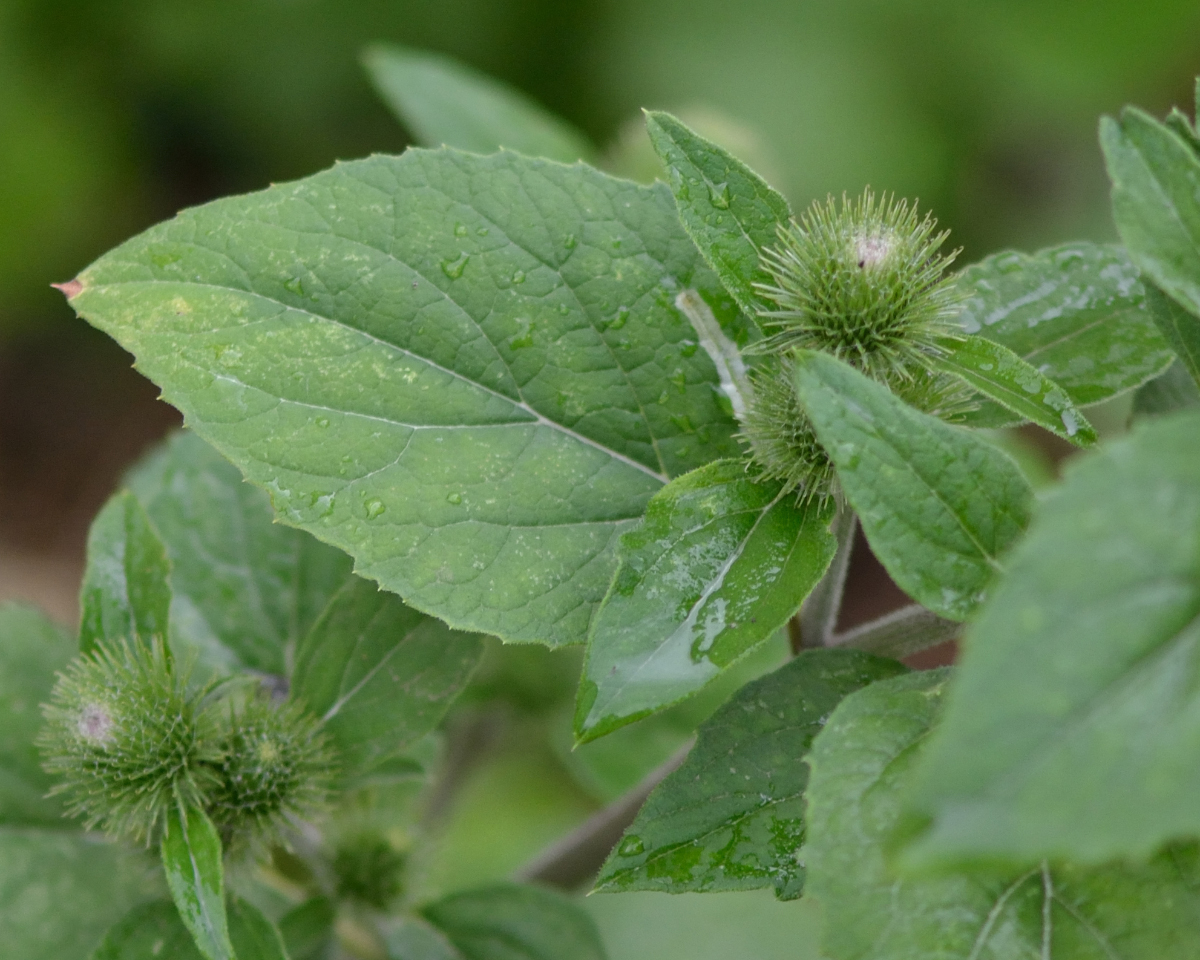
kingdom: Plantae
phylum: Tracheophyta
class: Magnoliopsida
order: Asterales
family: Asteraceae
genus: Arctium
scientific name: Arctium minus
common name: Lesser burdock
